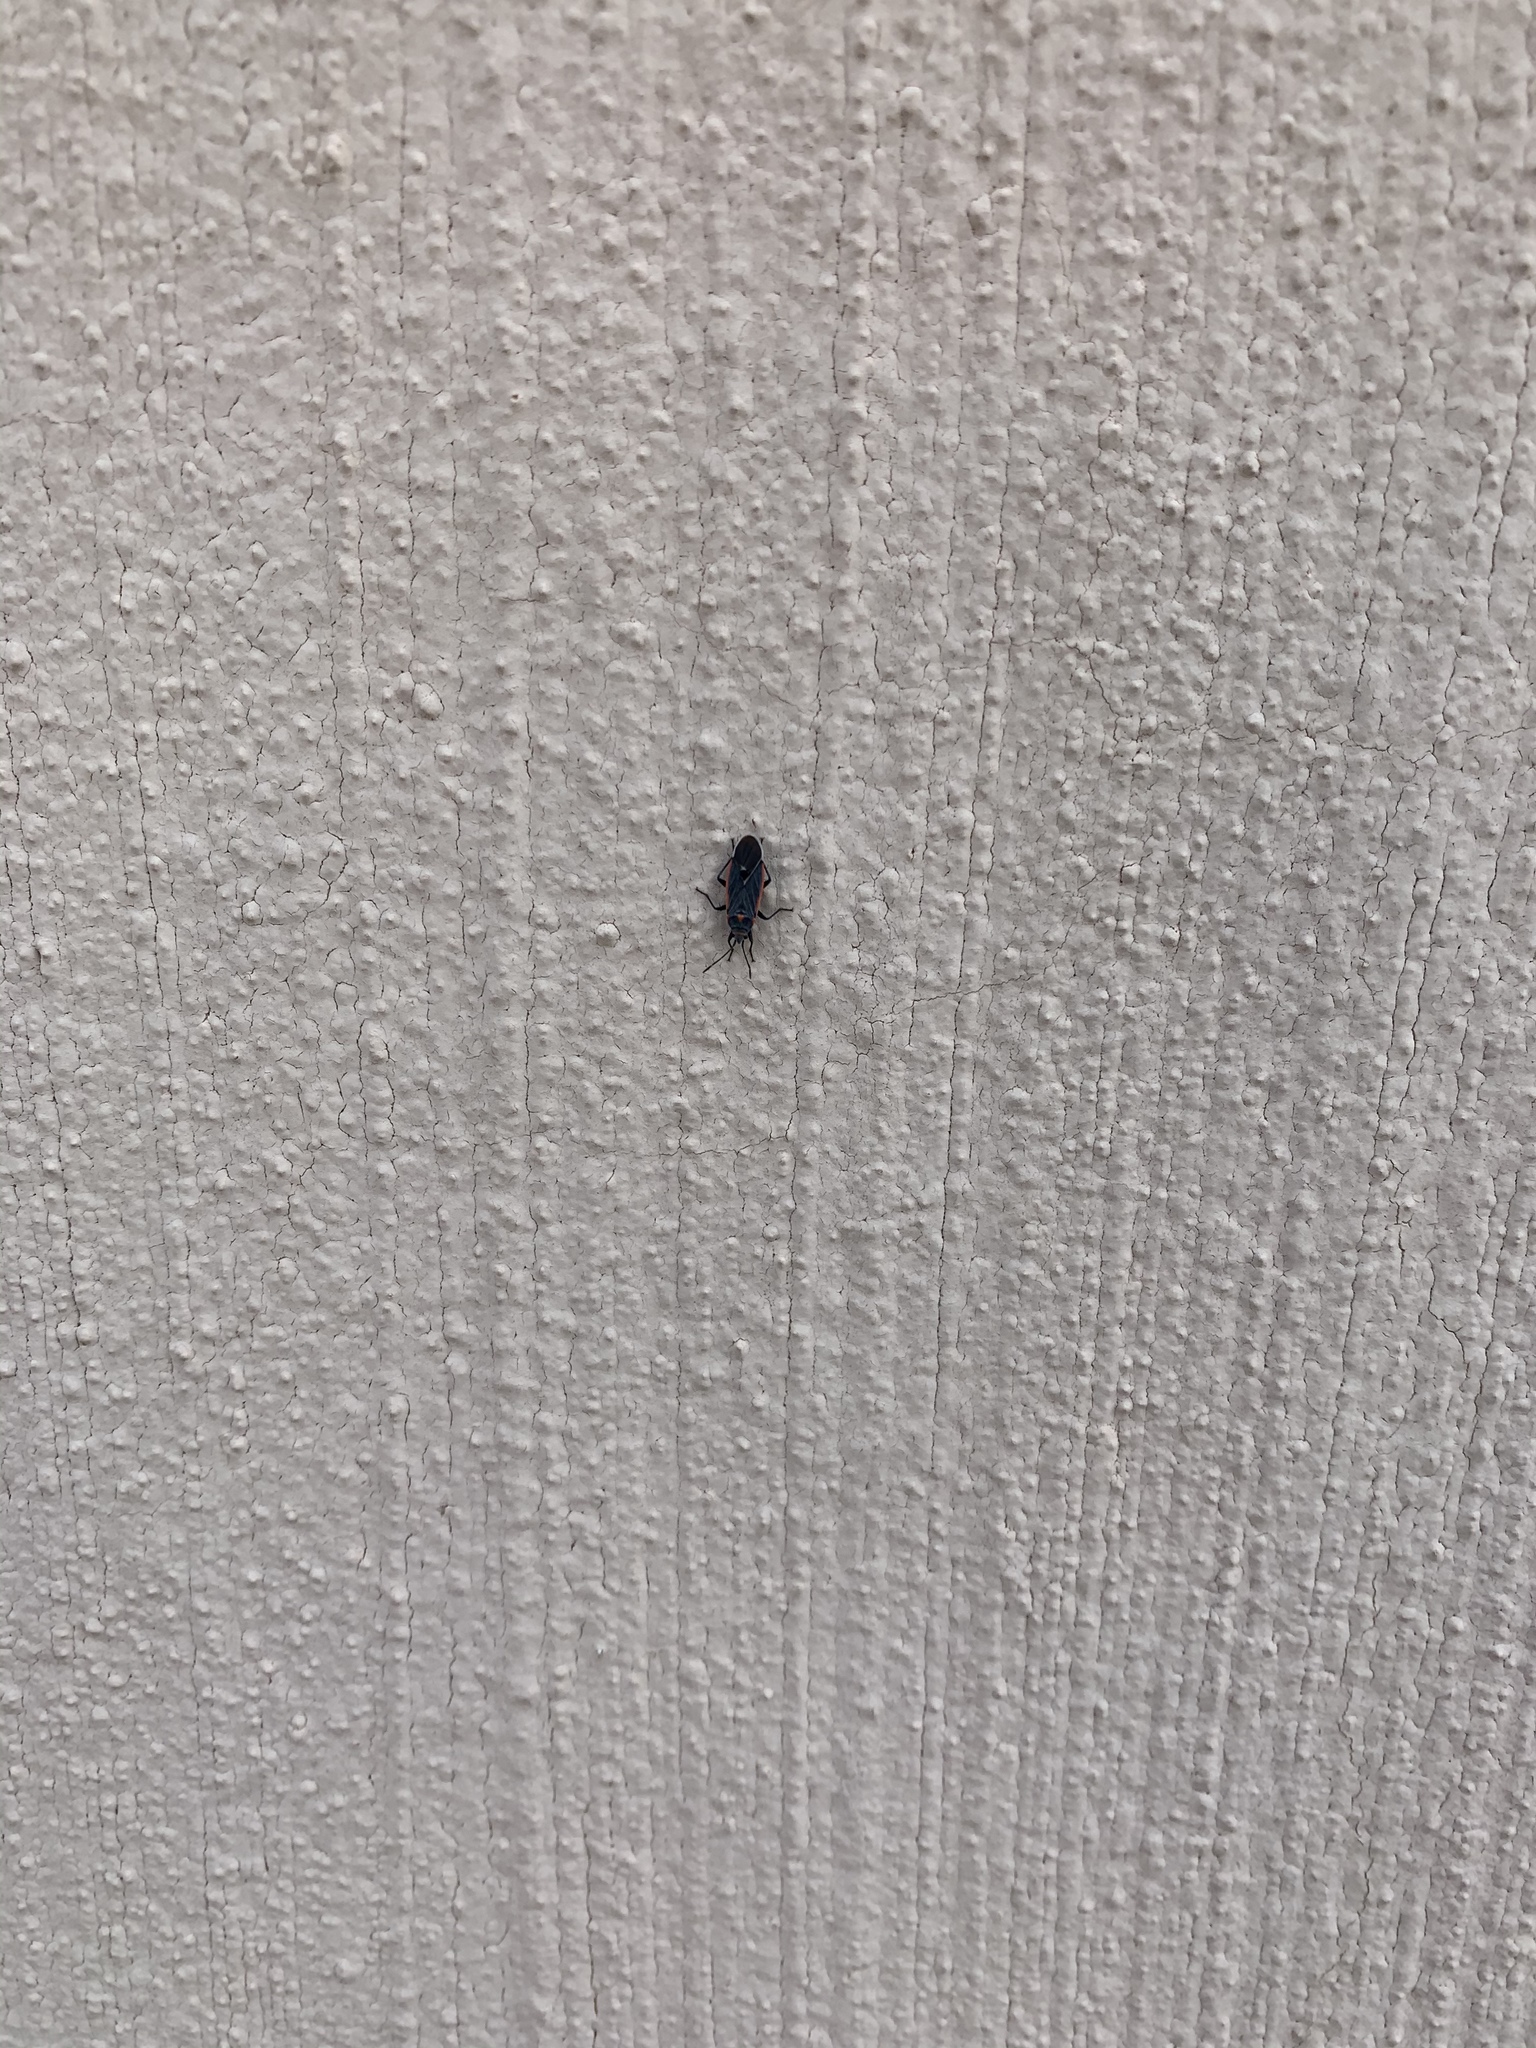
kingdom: Animalia
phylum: Arthropoda
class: Insecta
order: Hemiptera
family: Lygaeidae
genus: Melacoryphus
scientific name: Melacoryphus lateralis
